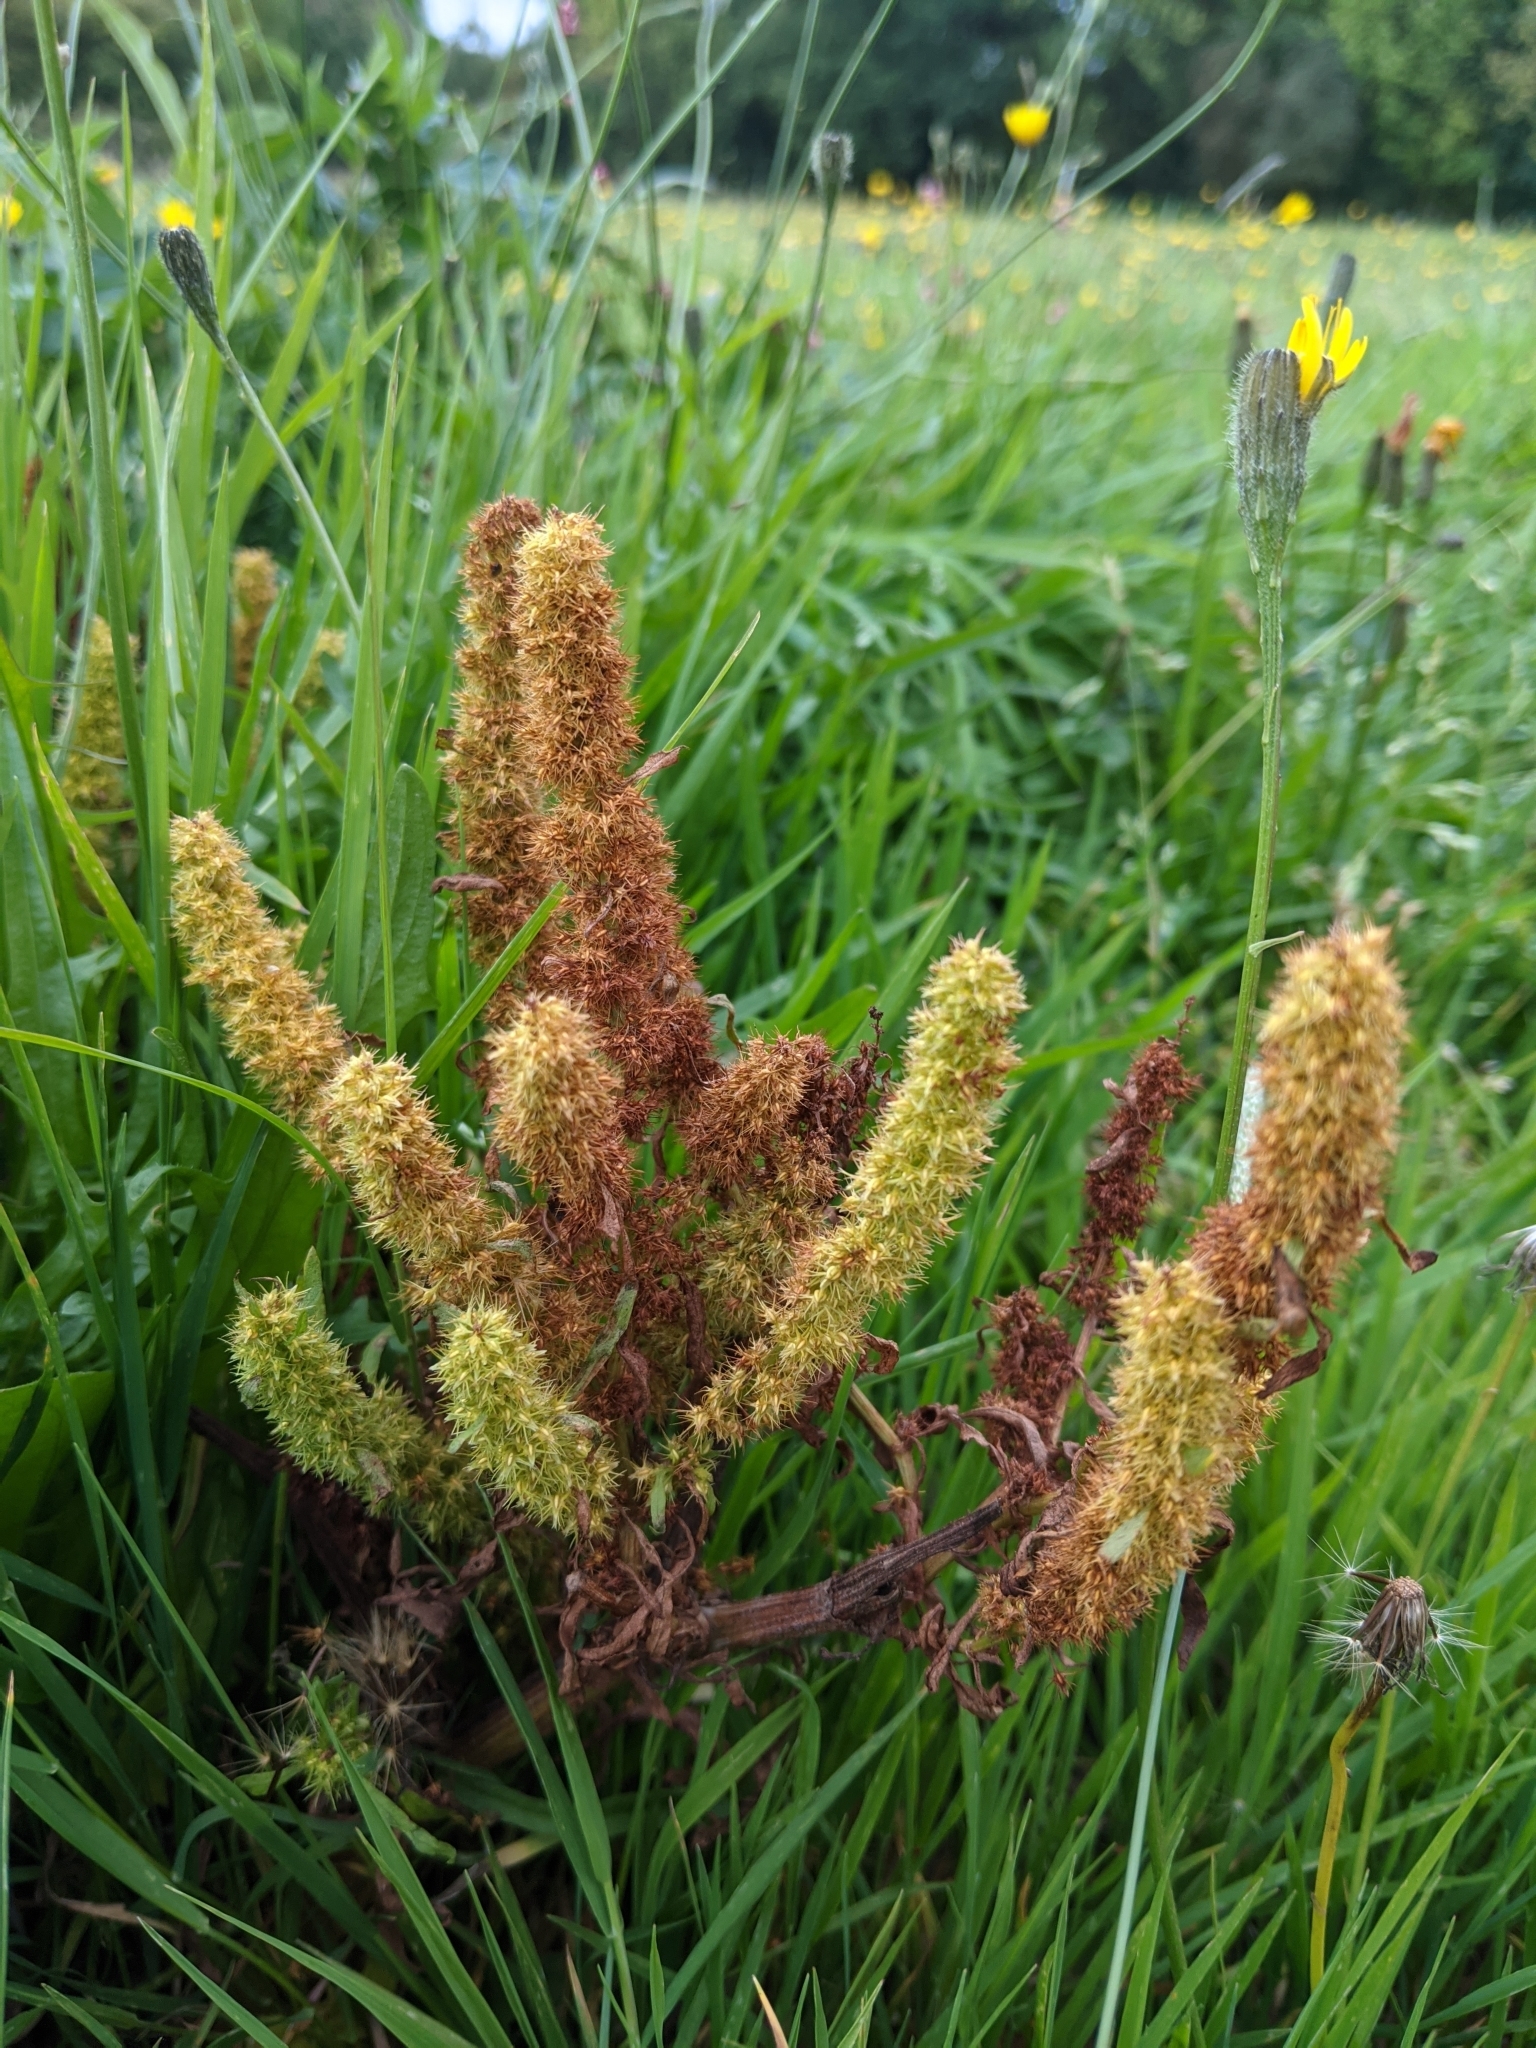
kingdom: Plantae
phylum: Tracheophyta
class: Magnoliopsida
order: Caryophyllales
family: Polygonaceae
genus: Rumex
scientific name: Rumex maritimus
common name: Golden dock
